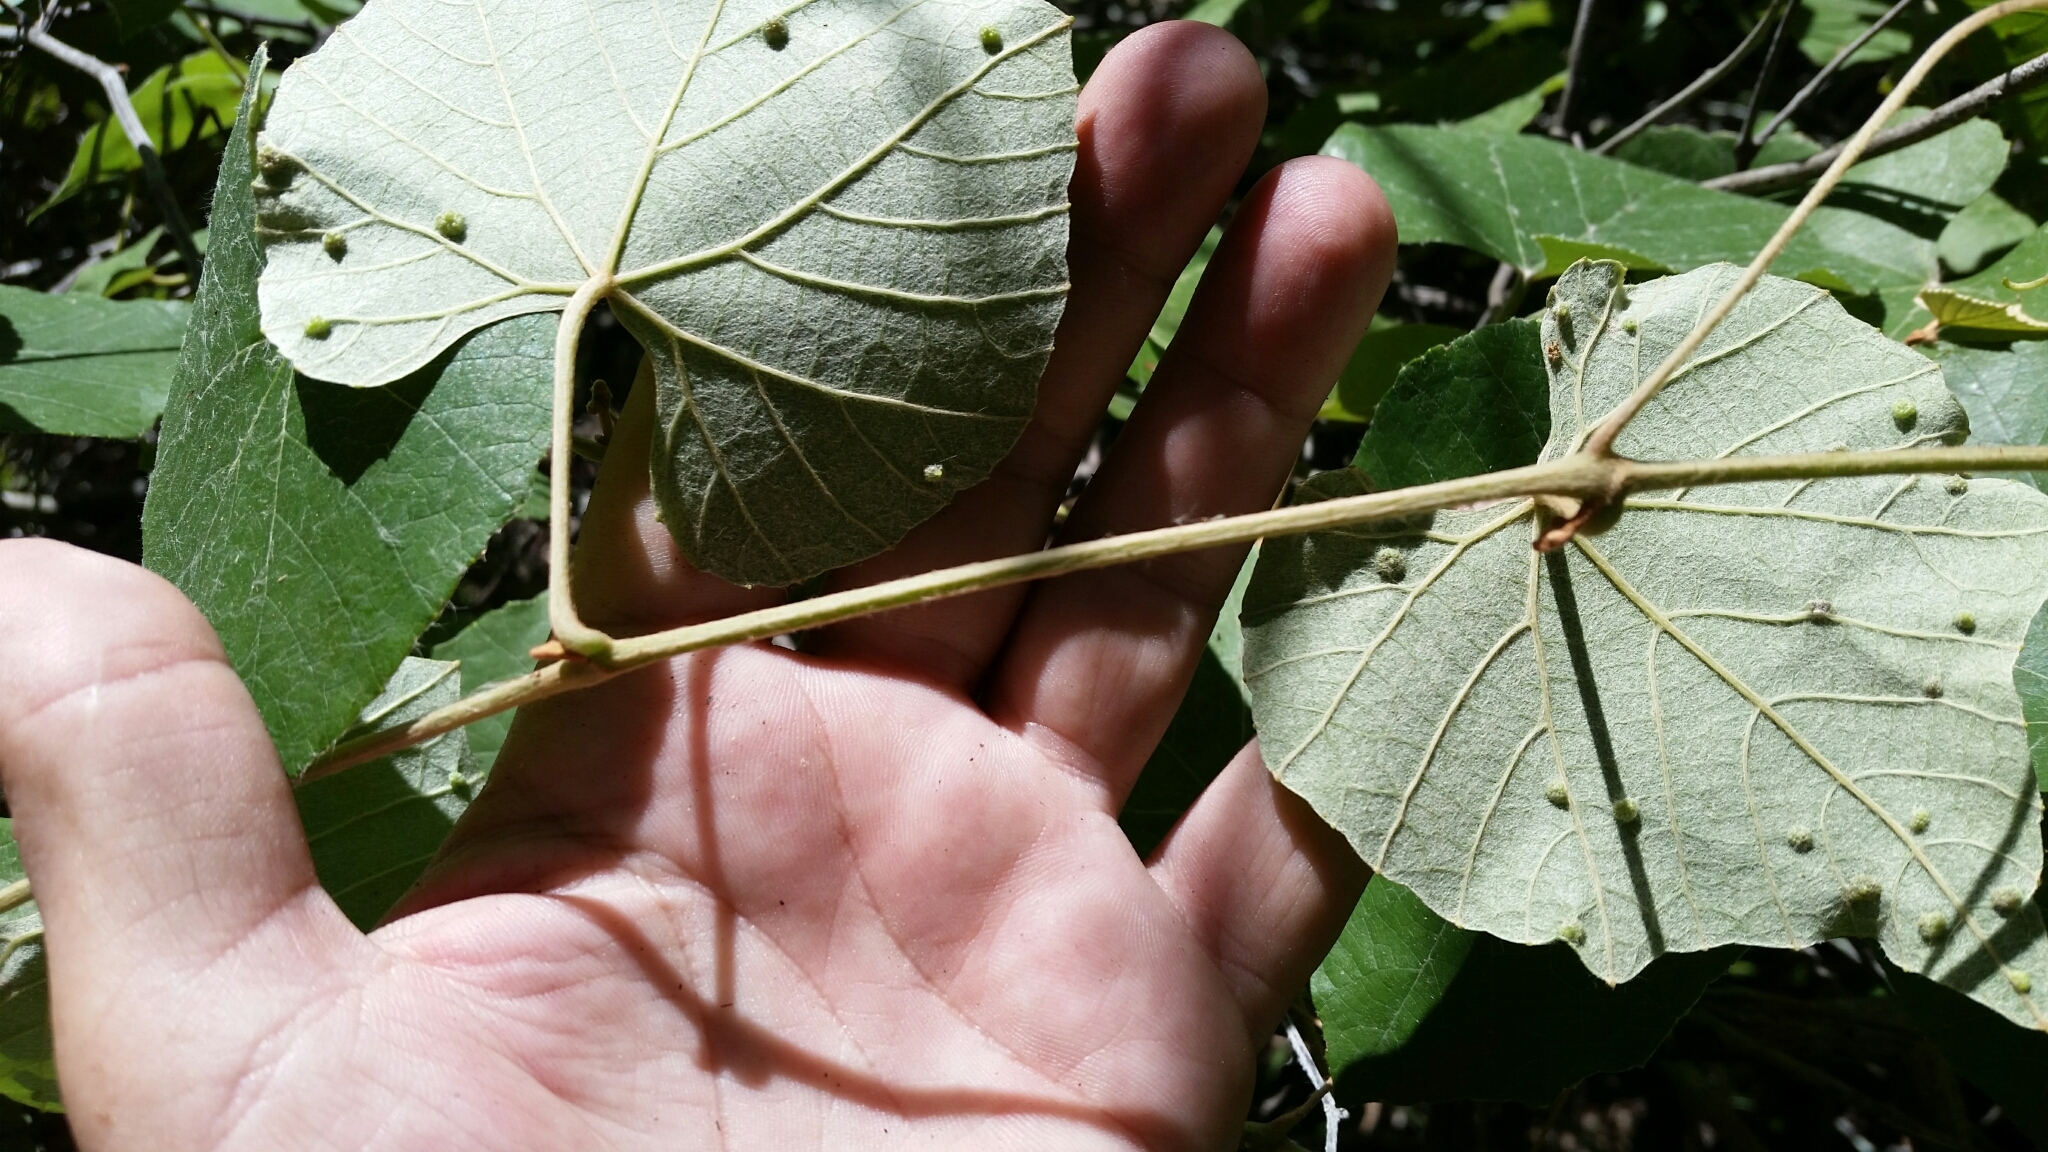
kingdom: Plantae
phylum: Tracheophyta
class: Magnoliopsida
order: Vitales
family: Vitaceae
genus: Vitis
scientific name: Vitis cinerea
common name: Ashy grape
